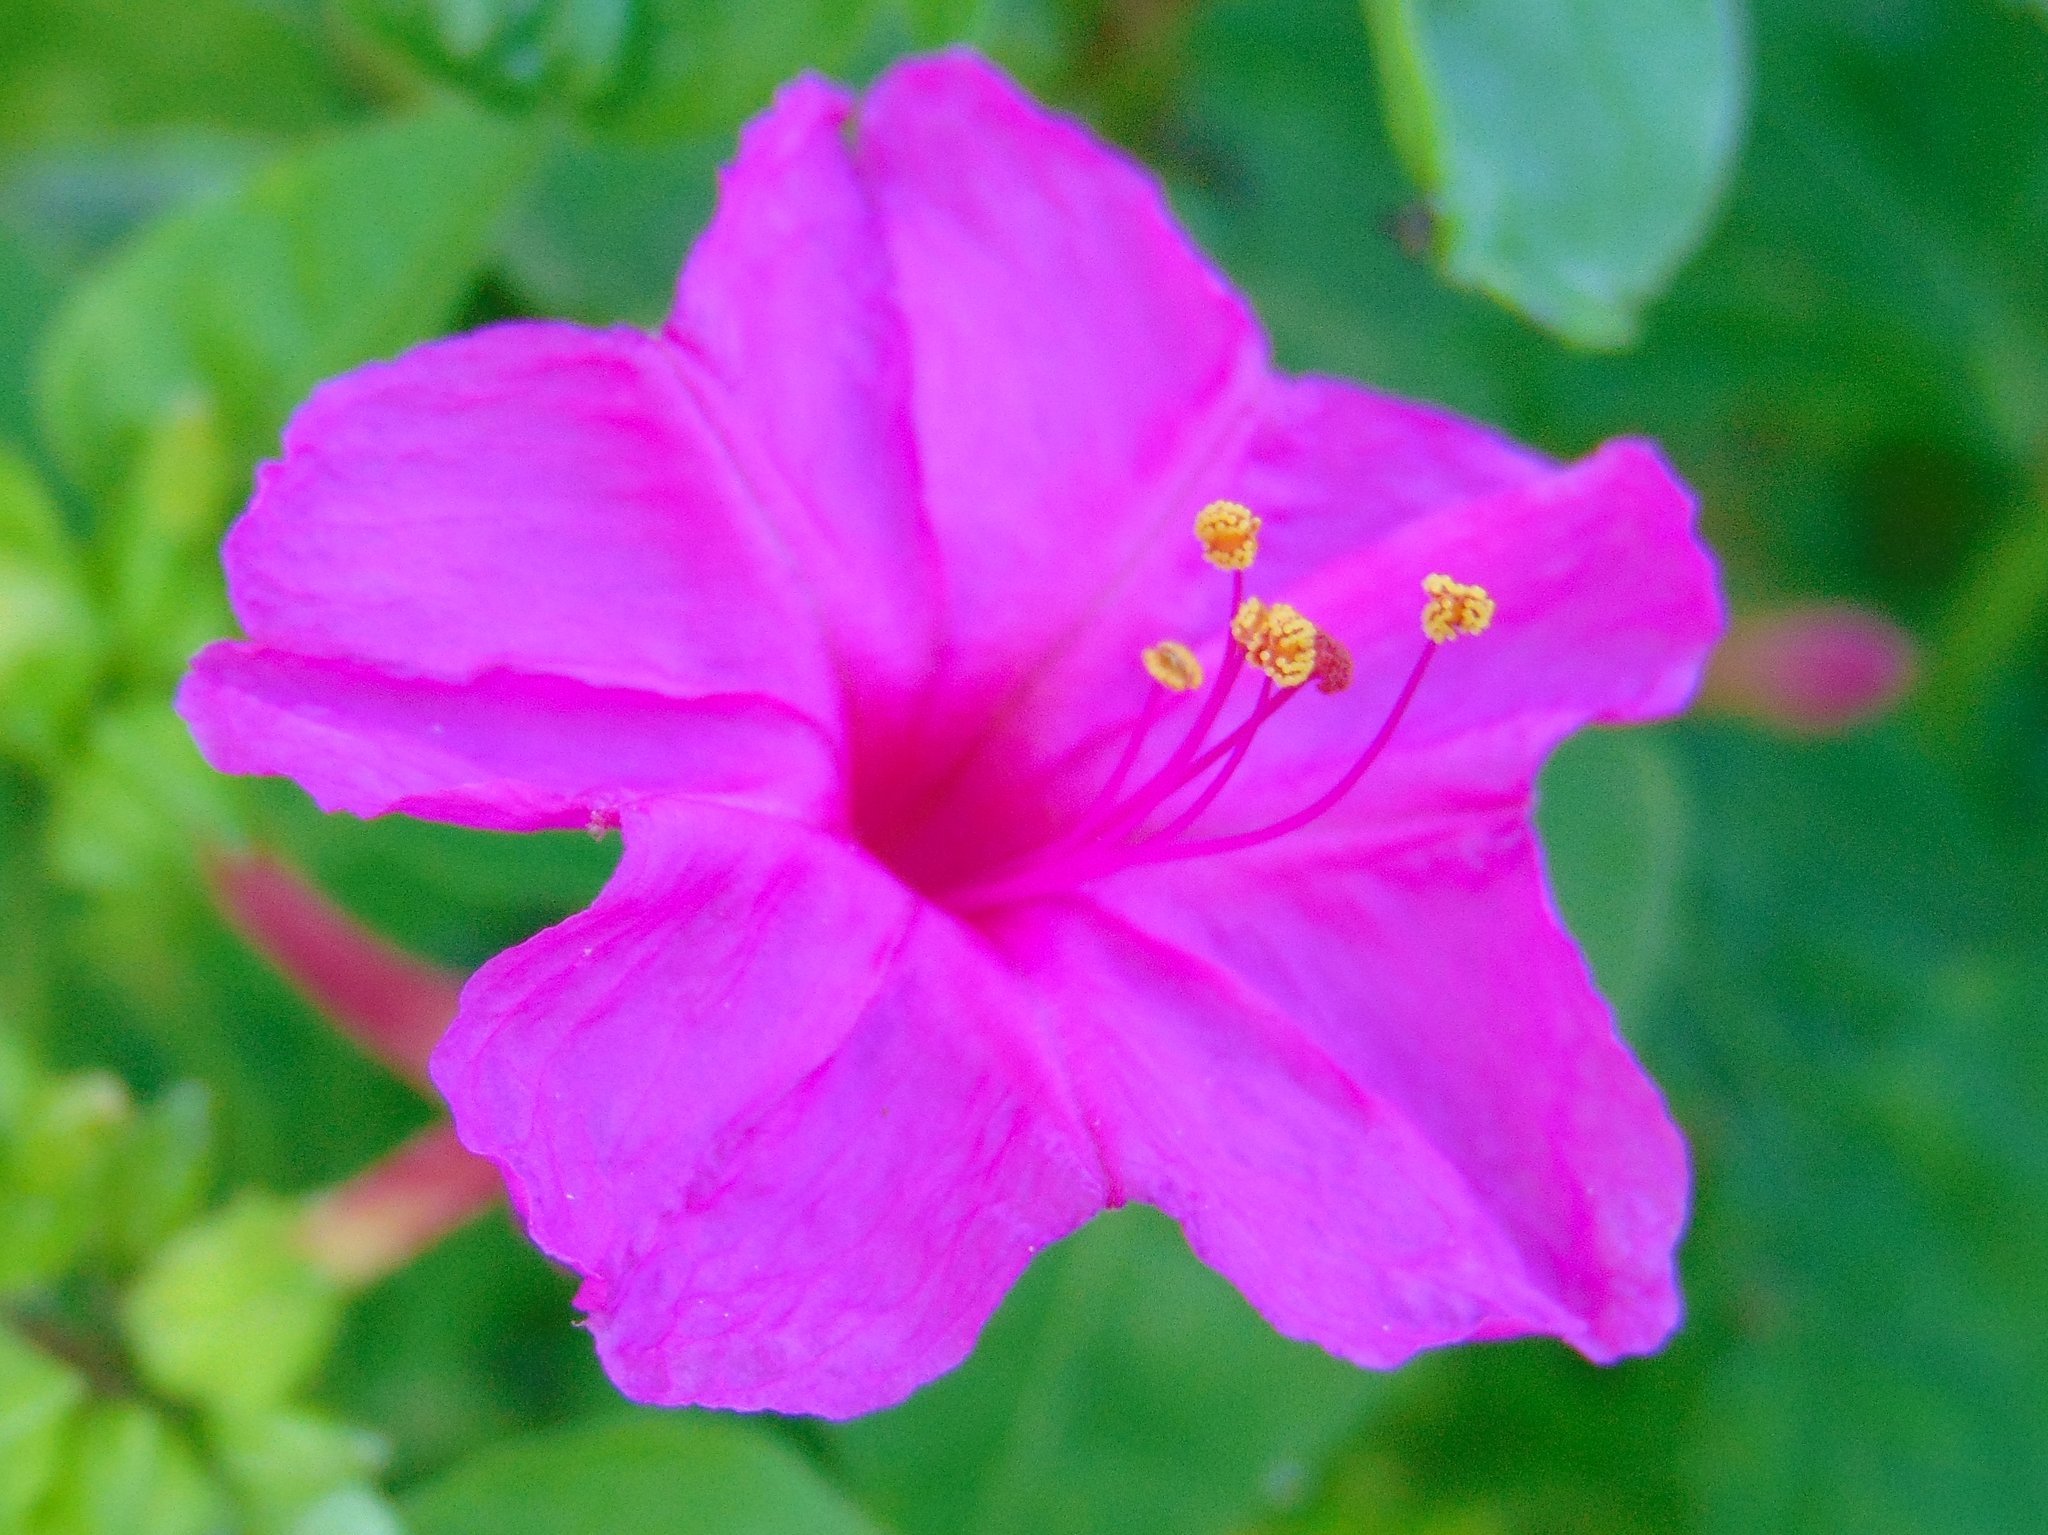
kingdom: Plantae
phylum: Tracheophyta
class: Magnoliopsida
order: Caryophyllales
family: Nyctaginaceae
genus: Mirabilis
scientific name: Mirabilis jalapa
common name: Marvel-of-peru
